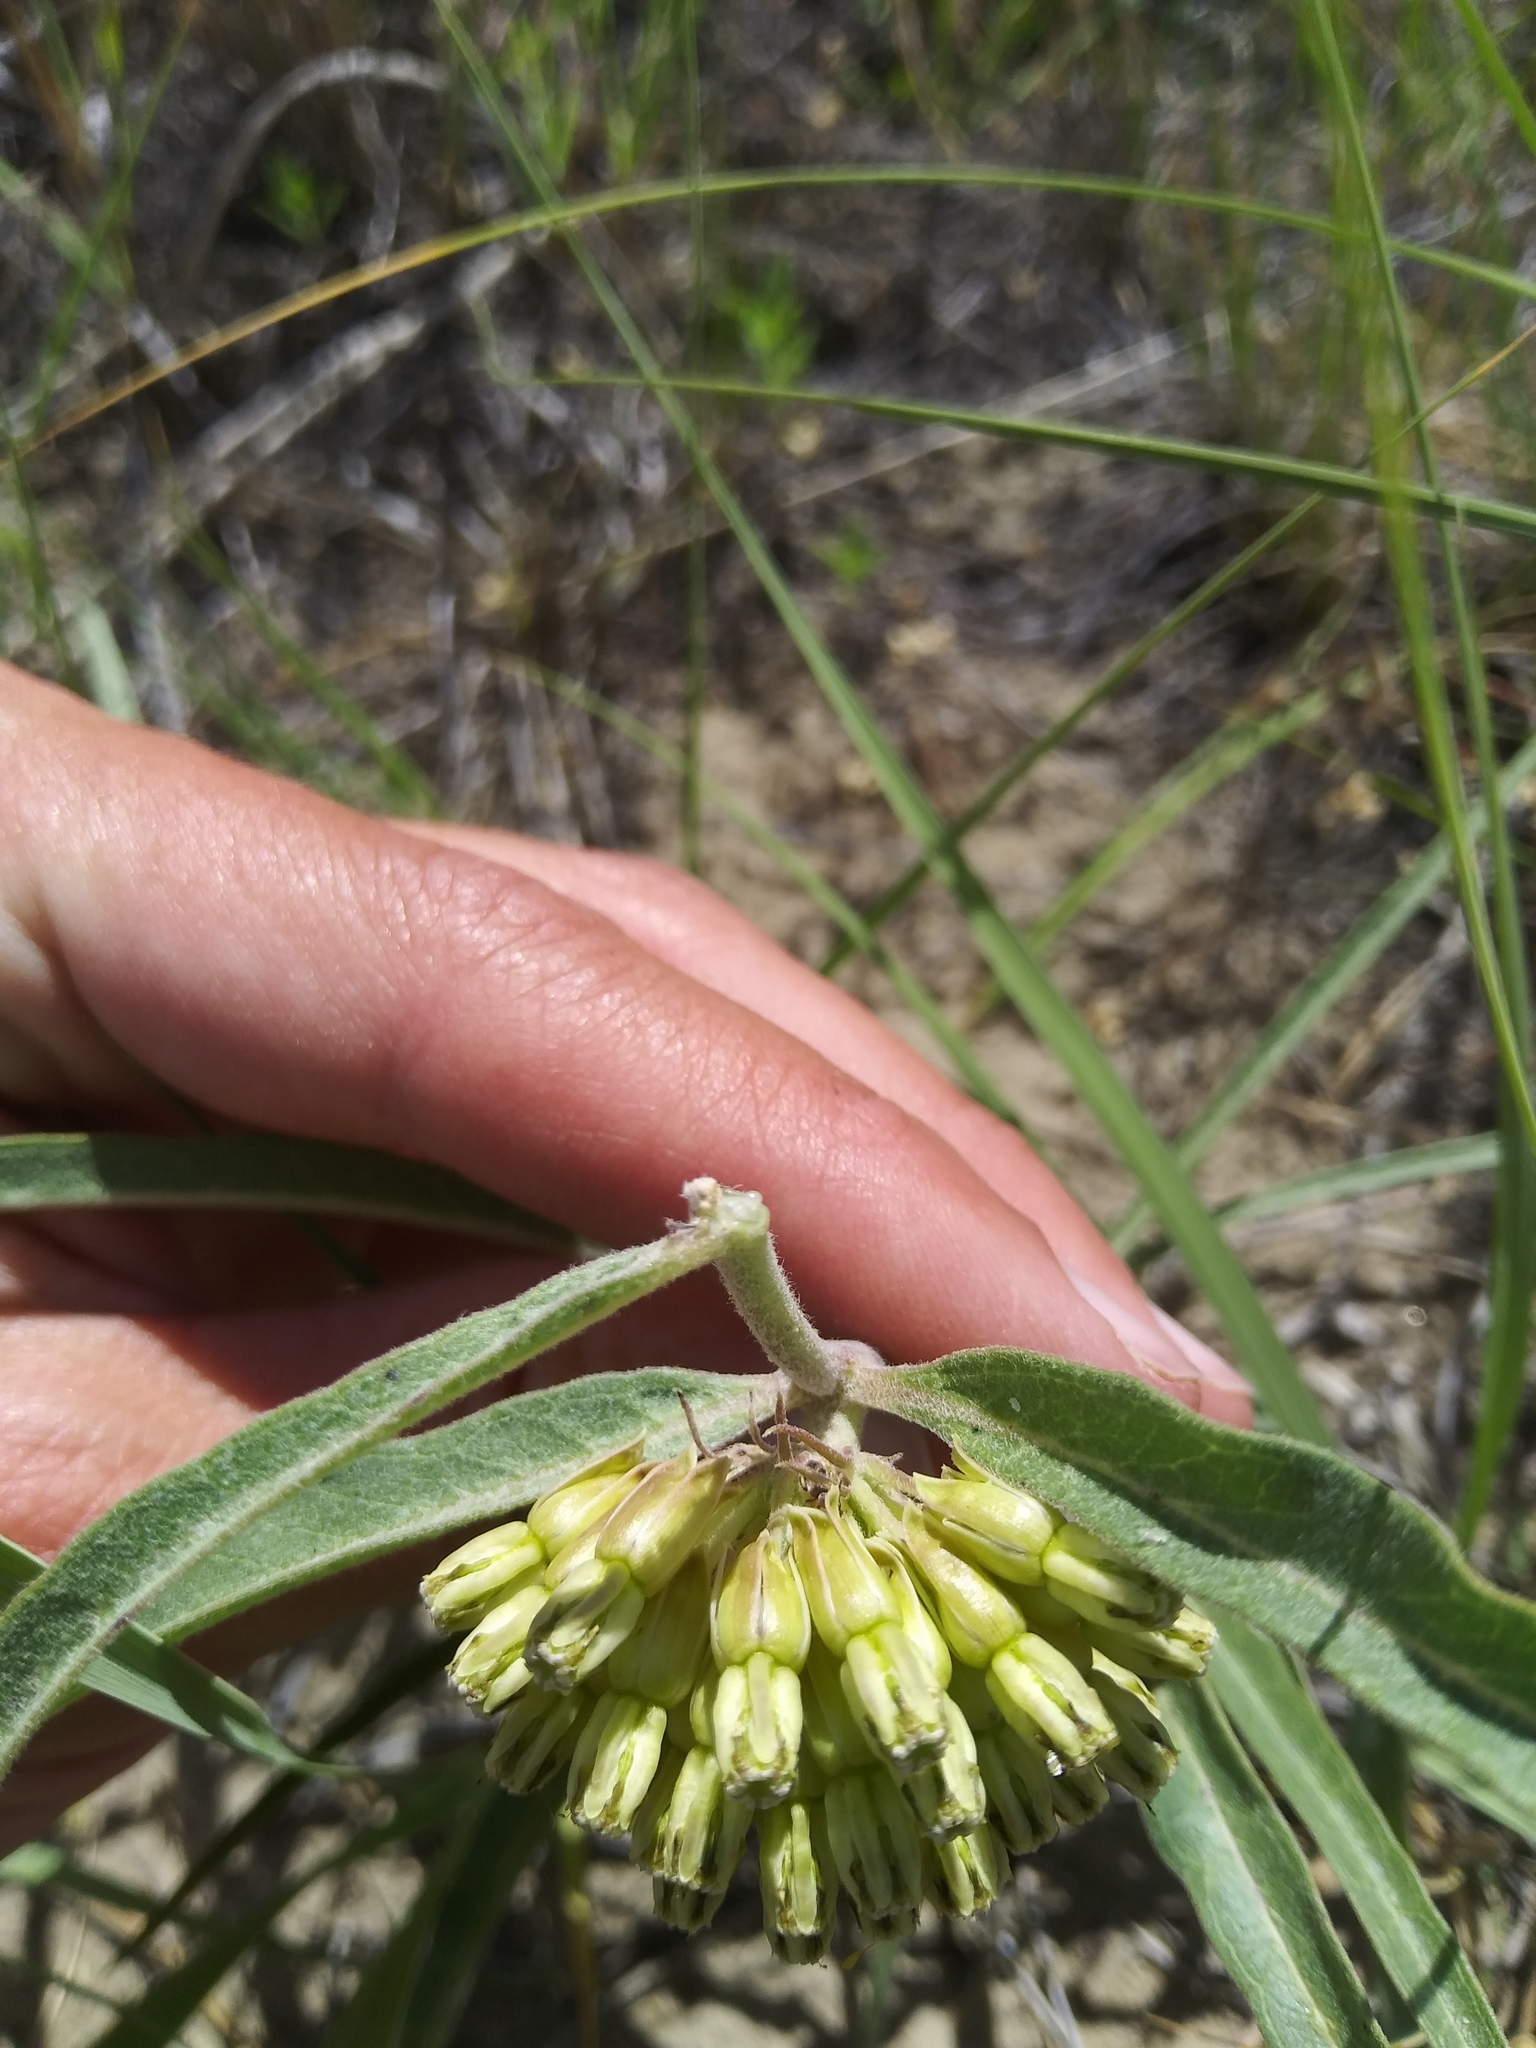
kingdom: Plantae
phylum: Tracheophyta
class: Magnoliopsida
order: Gentianales
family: Apocynaceae
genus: Asclepias
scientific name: Asclepias viridiflora
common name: Green comet milkweed
